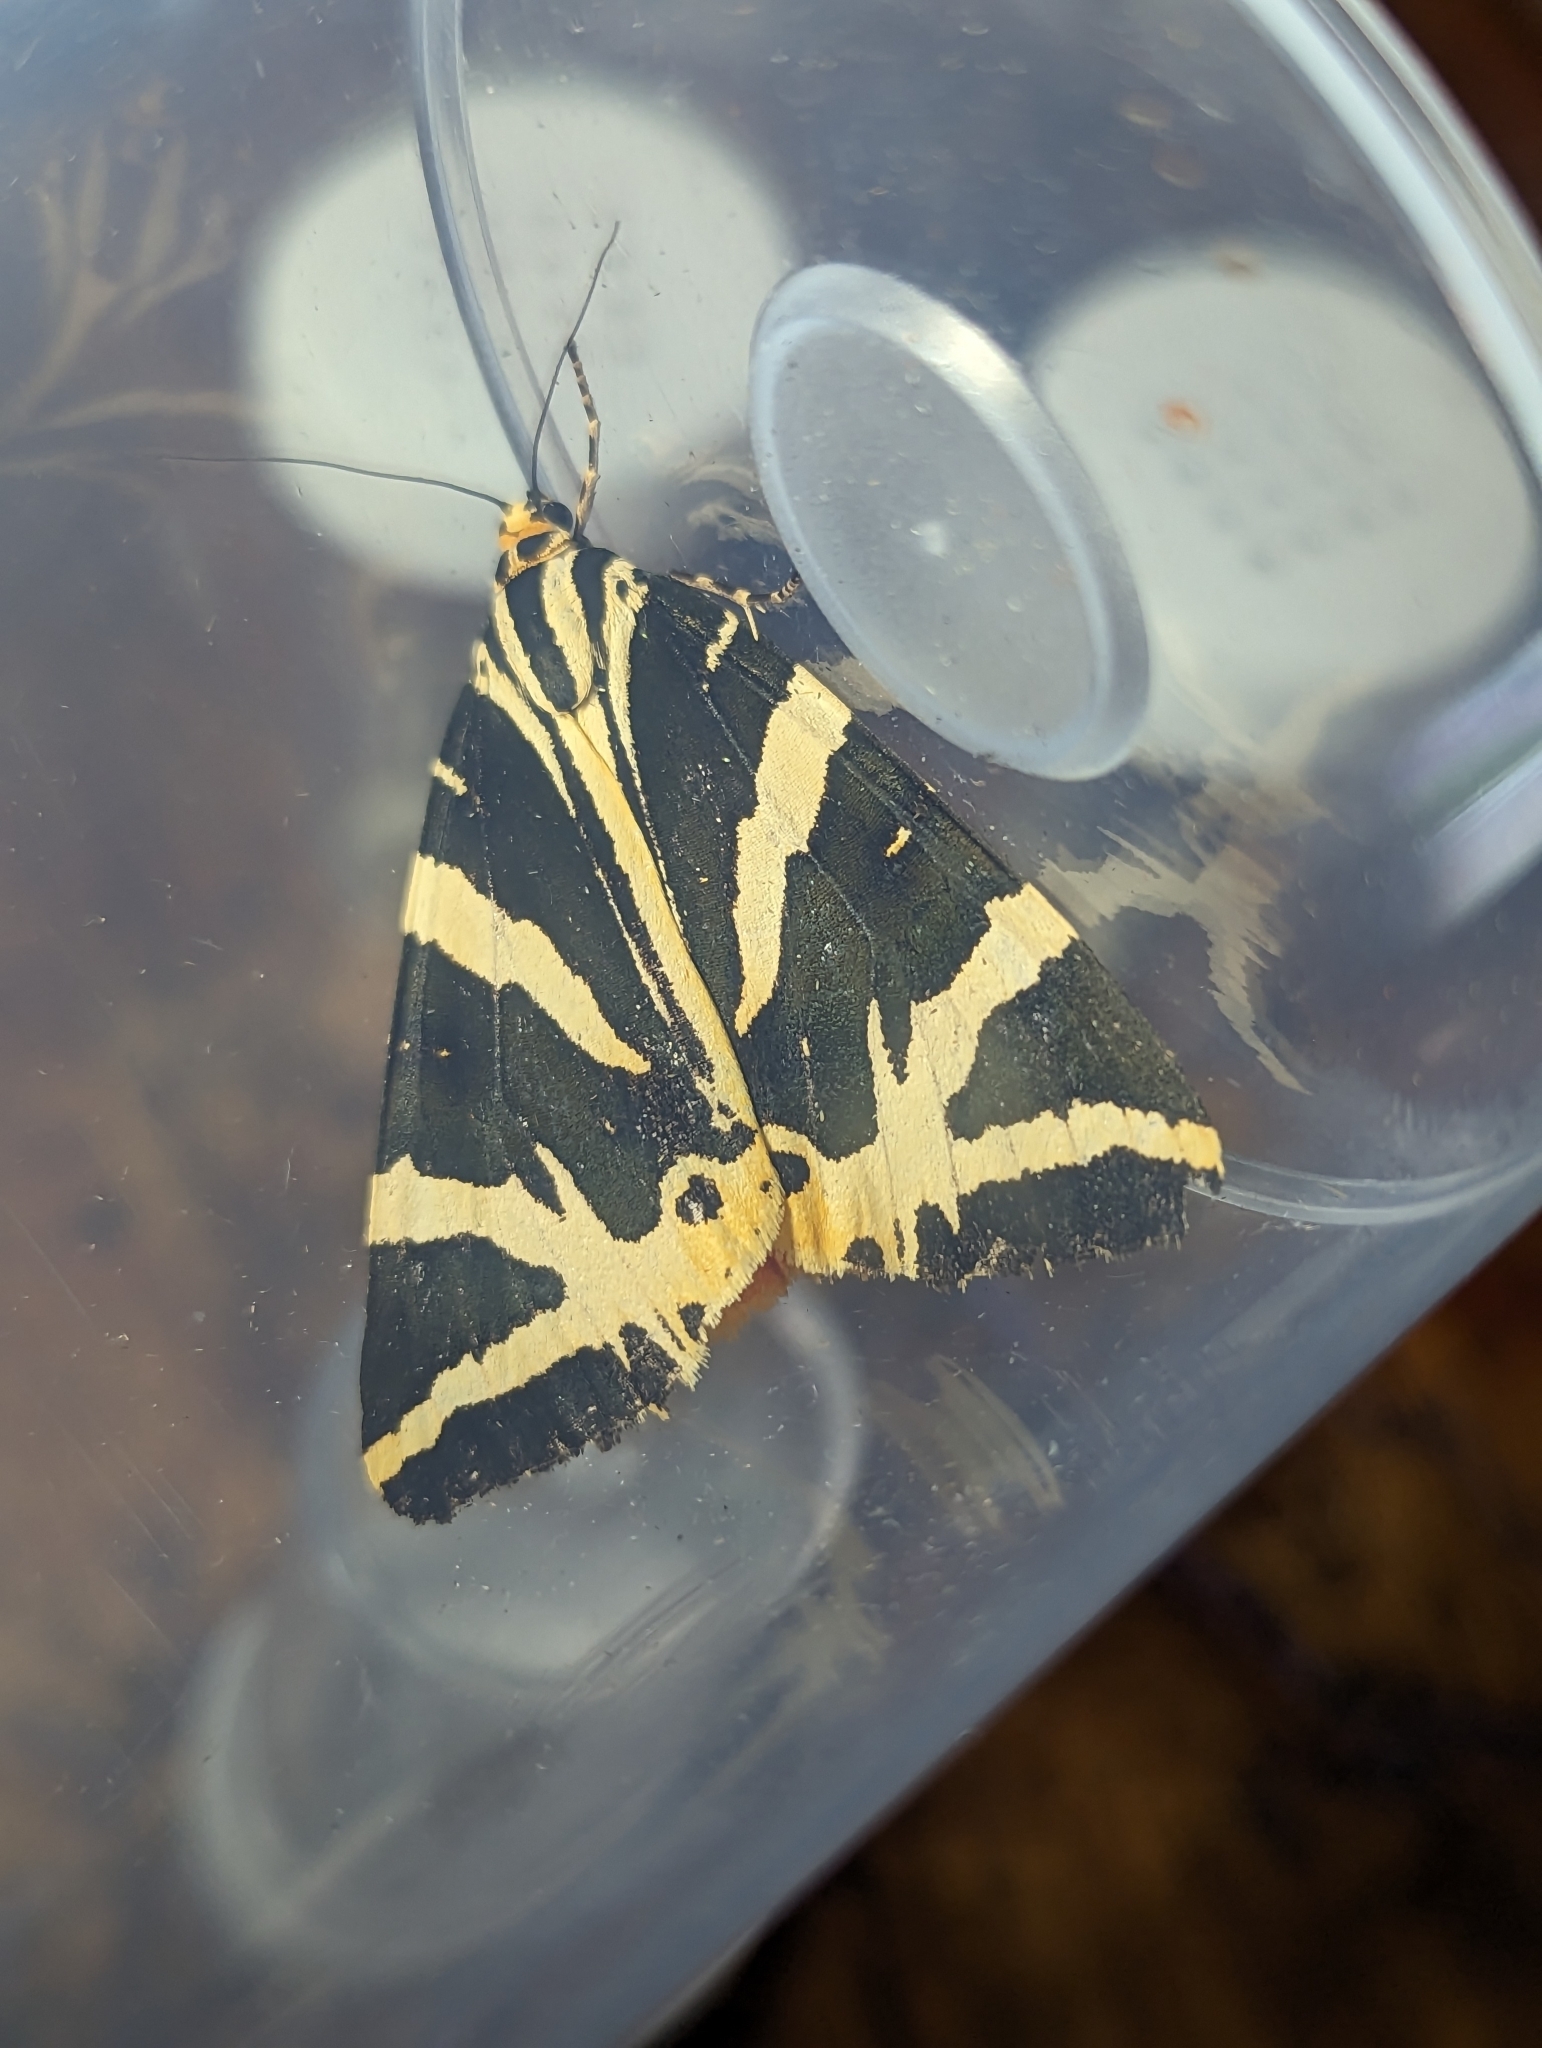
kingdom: Animalia
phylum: Arthropoda
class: Insecta
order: Lepidoptera
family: Erebidae
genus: Euplagia
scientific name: Euplagia quadripunctaria
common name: Jersey tiger
